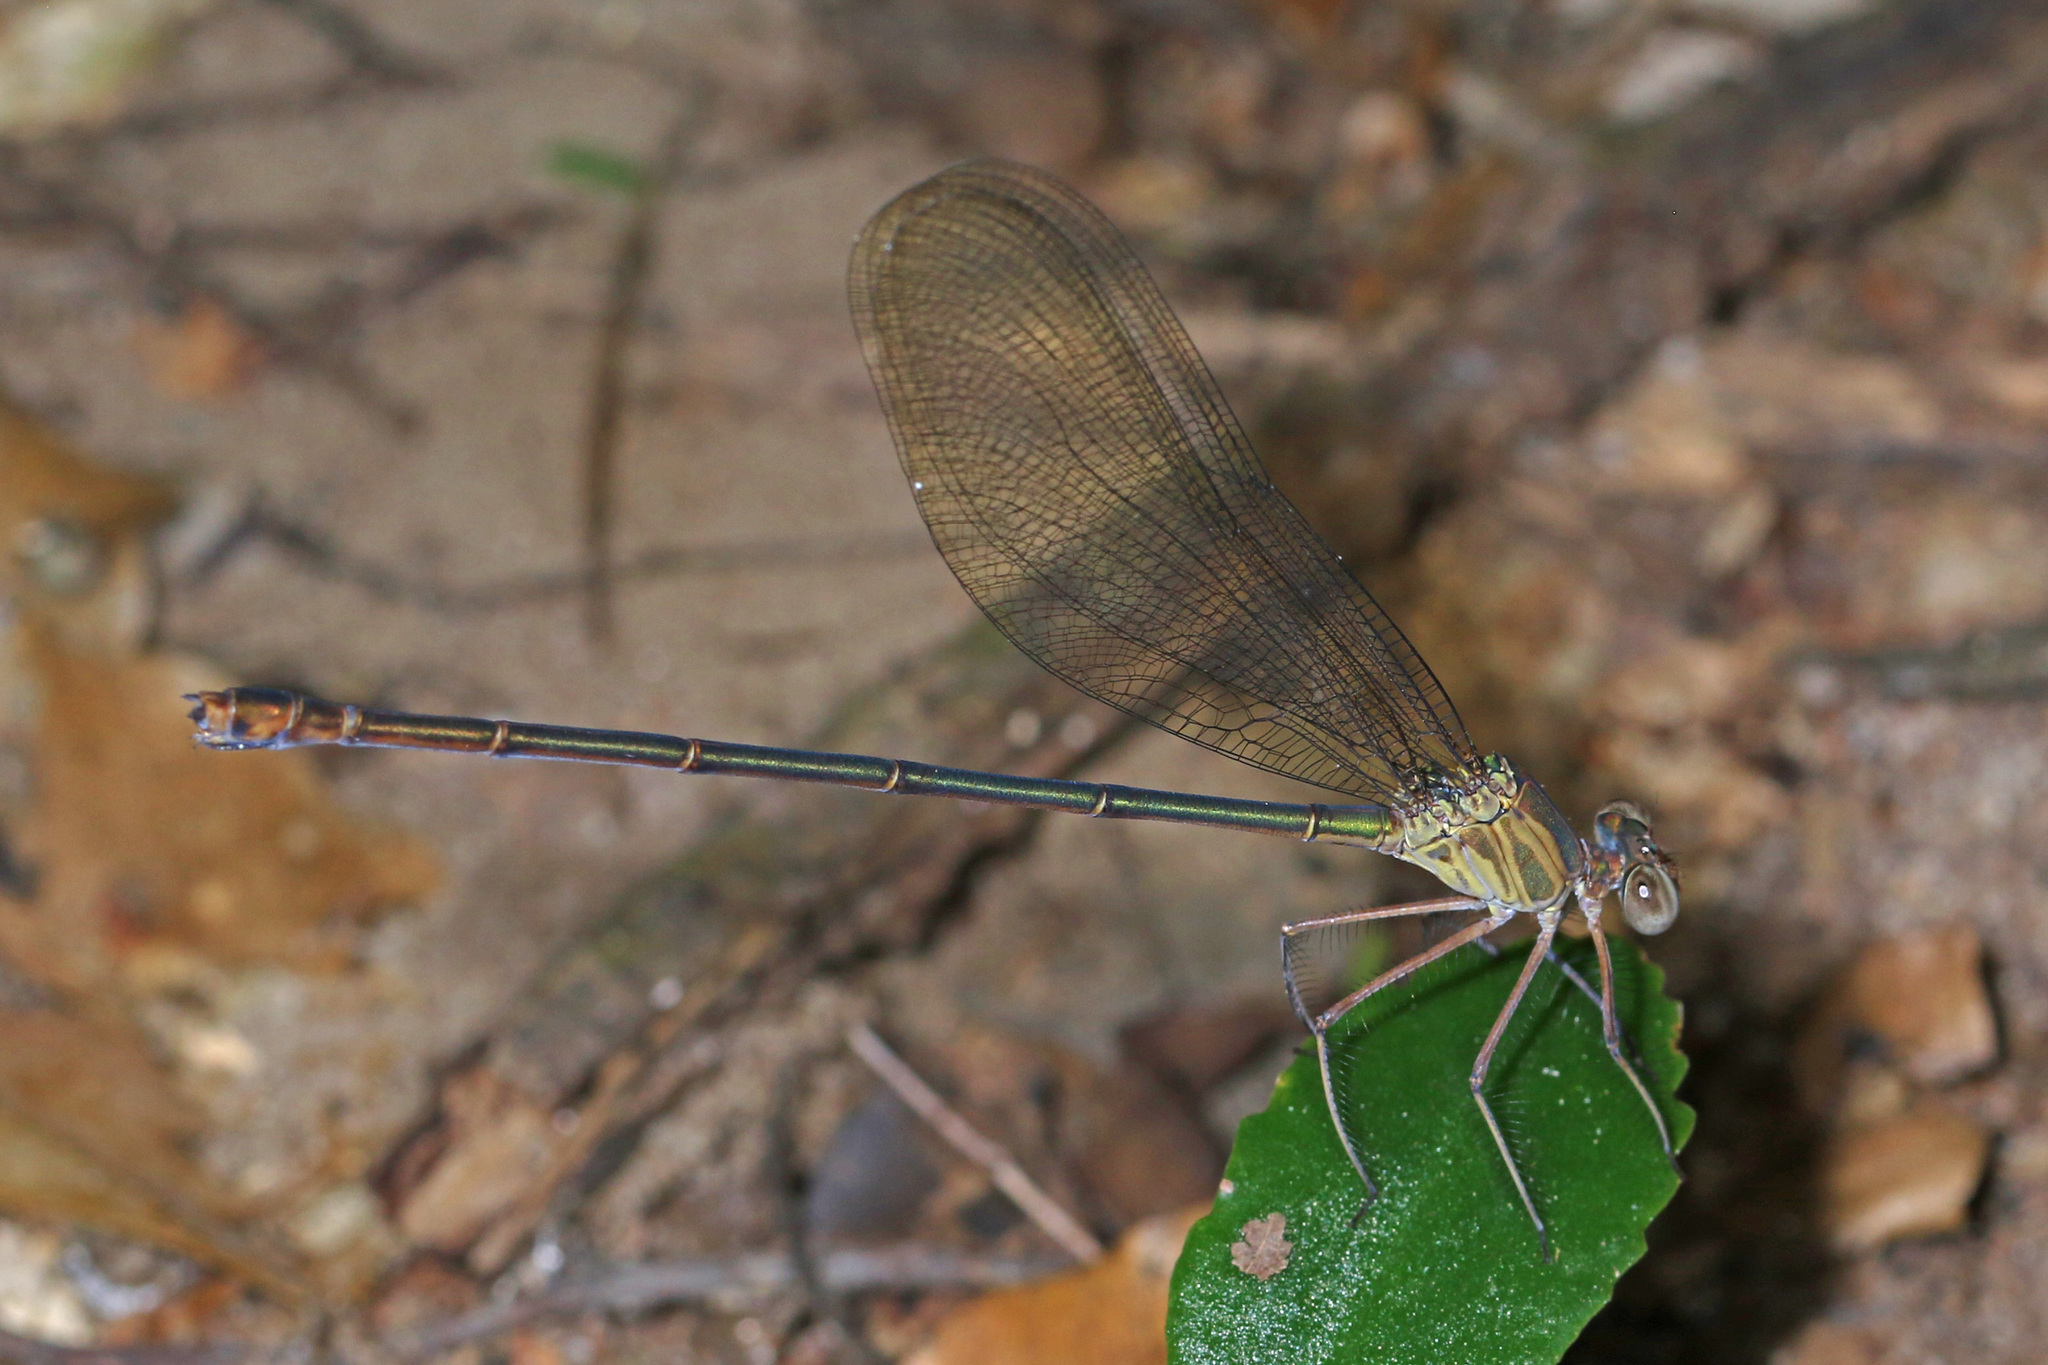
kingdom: Animalia
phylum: Arthropoda
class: Insecta
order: Odonata
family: Calopterygidae
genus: Phaon
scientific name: Phaon iridipennis
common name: Glistening demoiselle
